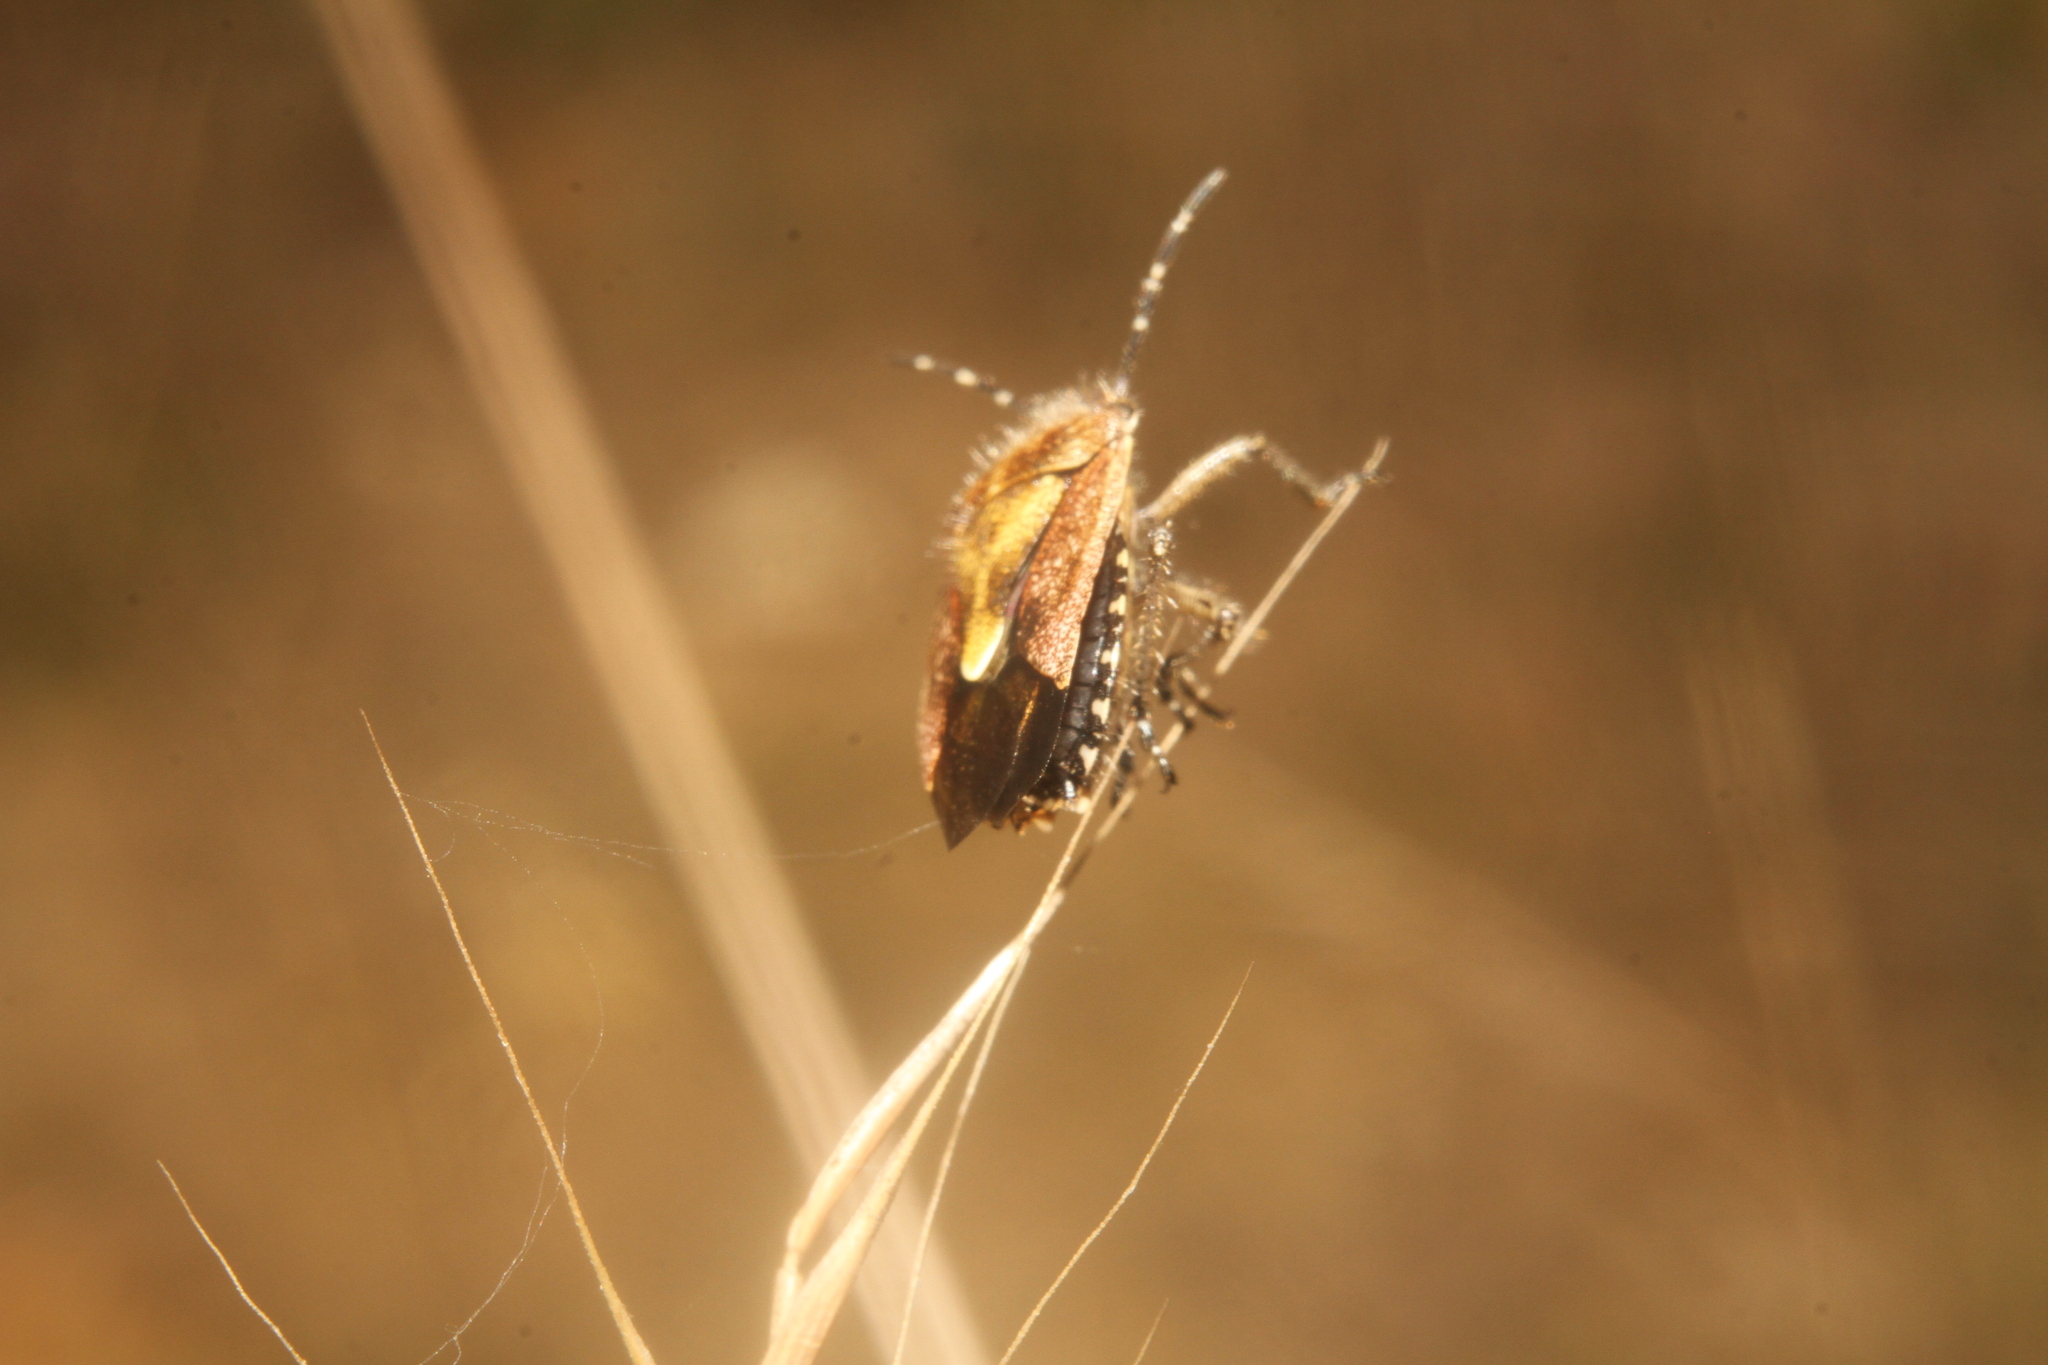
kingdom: Animalia
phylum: Arthropoda
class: Insecta
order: Hemiptera
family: Pentatomidae
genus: Dolycoris
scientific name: Dolycoris baccarum
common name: Sloe bug
